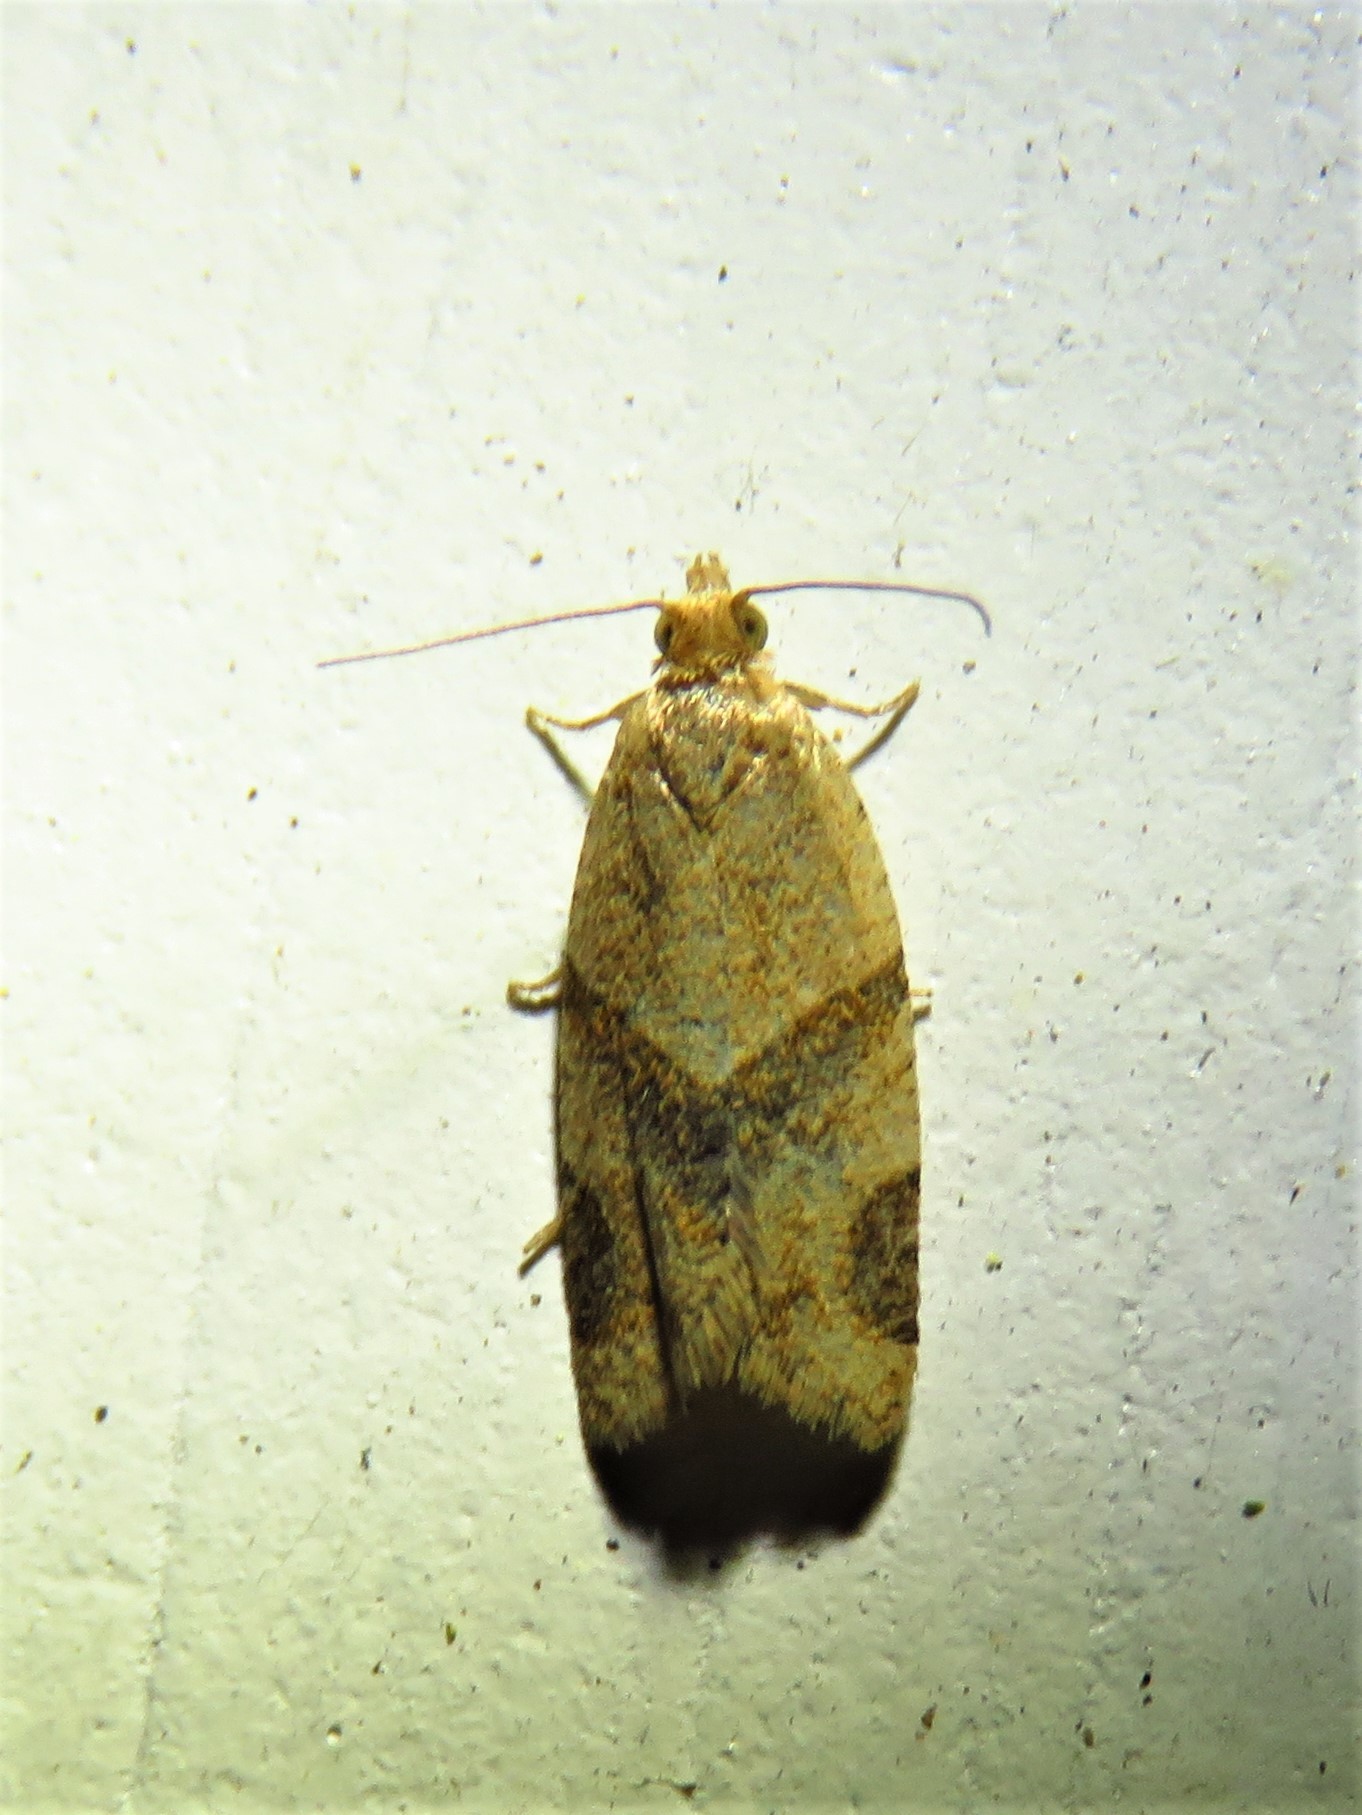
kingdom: Animalia
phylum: Arthropoda
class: Insecta
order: Lepidoptera
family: Tortricidae
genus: Clepsis
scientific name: Clepsis peritana
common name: Garden tortrix
